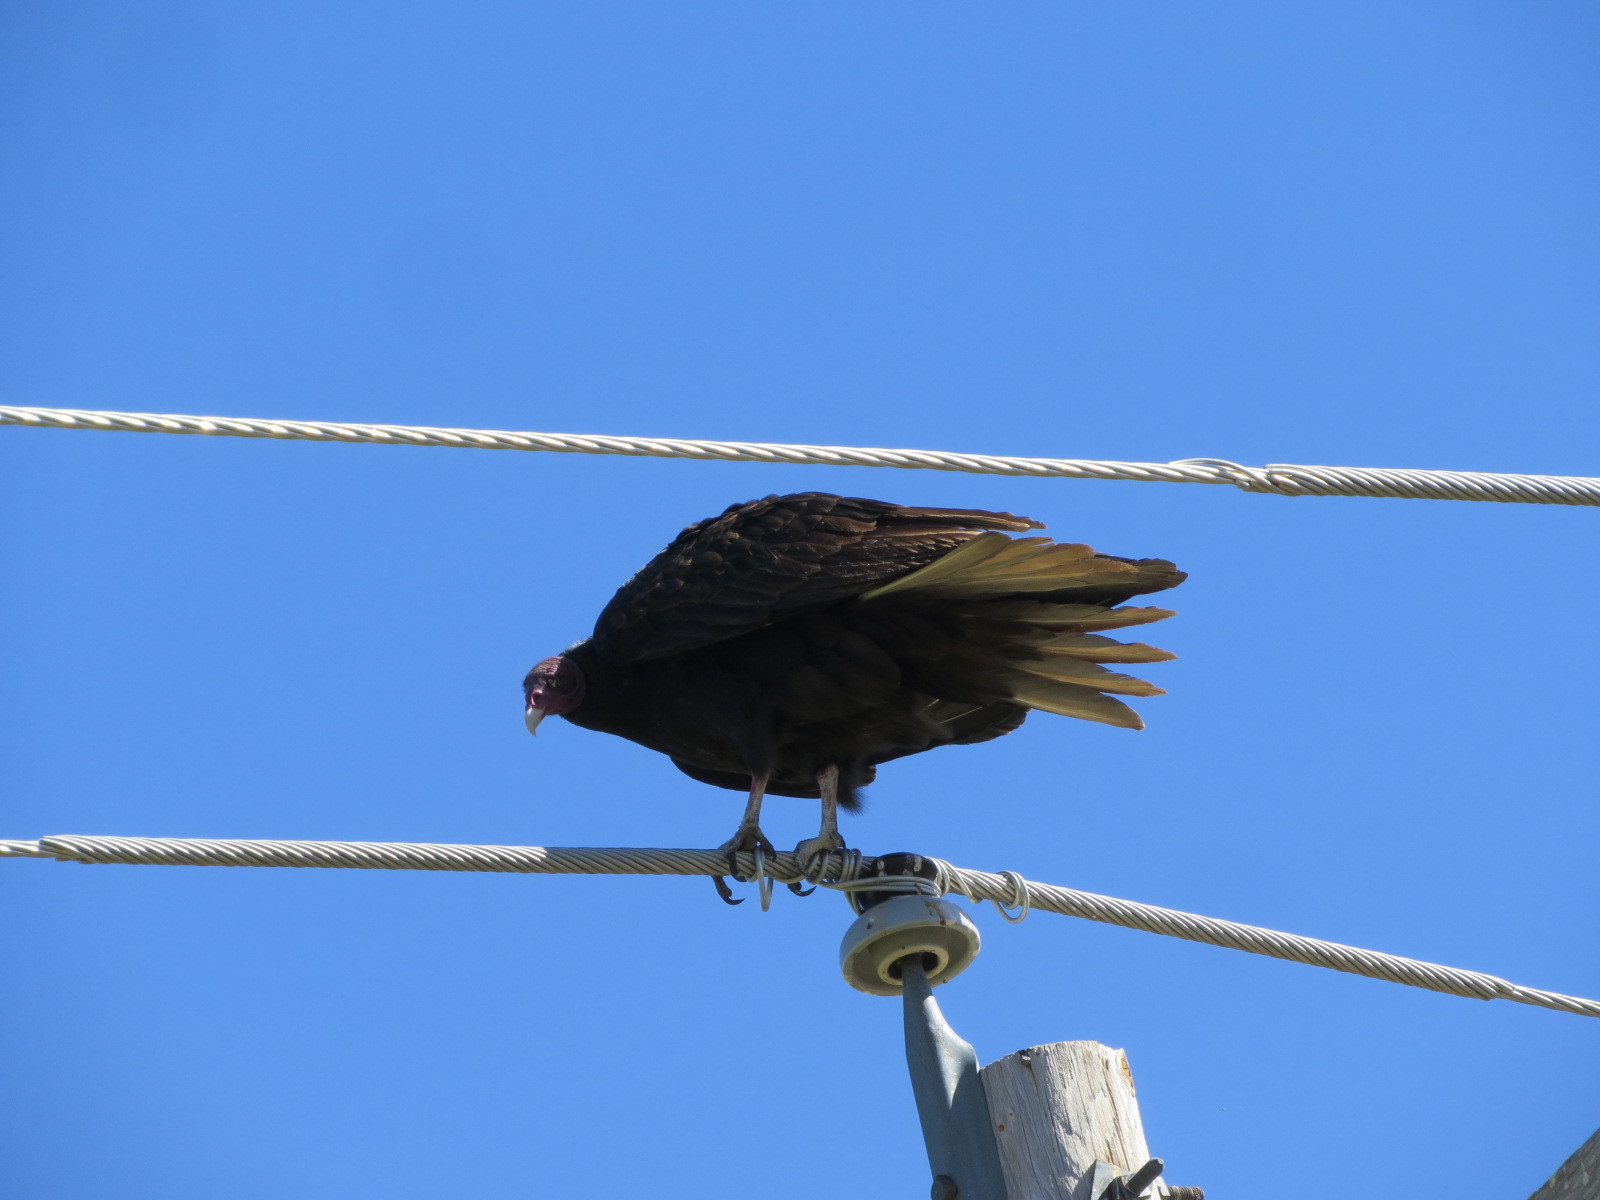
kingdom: Animalia
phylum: Chordata
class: Aves
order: Accipitriformes
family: Cathartidae
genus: Cathartes
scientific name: Cathartes aura
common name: Turkey vulture
